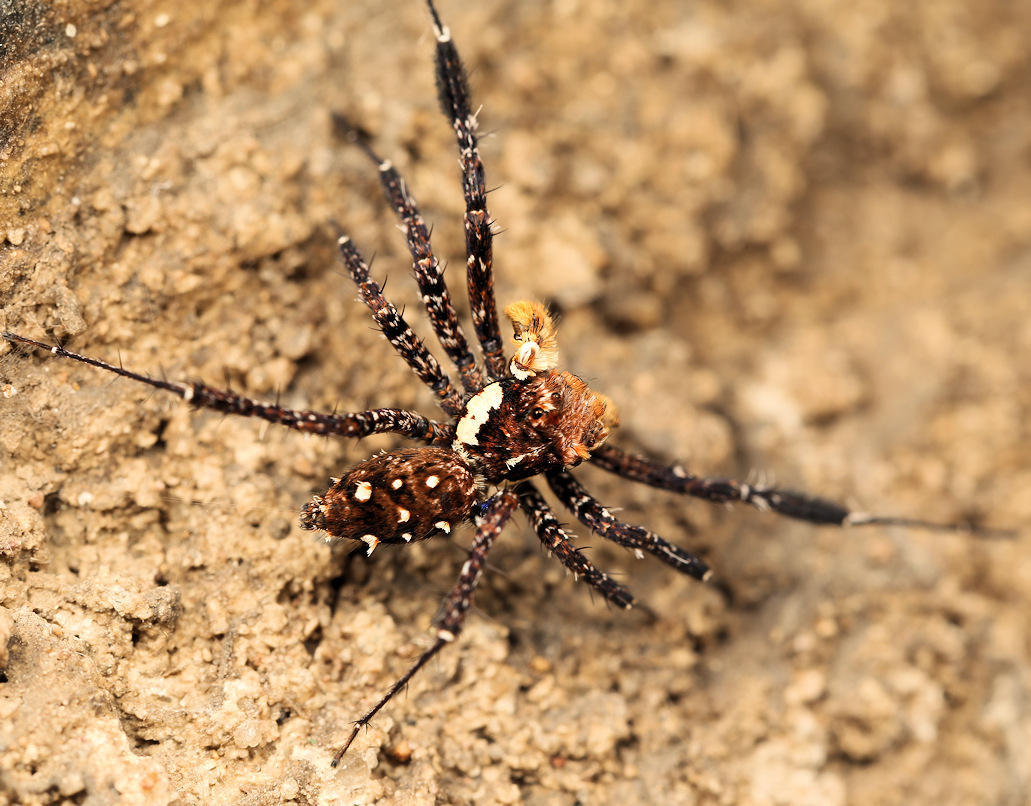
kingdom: Animalia
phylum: Arthropoda
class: Arachnida
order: Araneae
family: Salticidae
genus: Portia
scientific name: Portia schultzi
